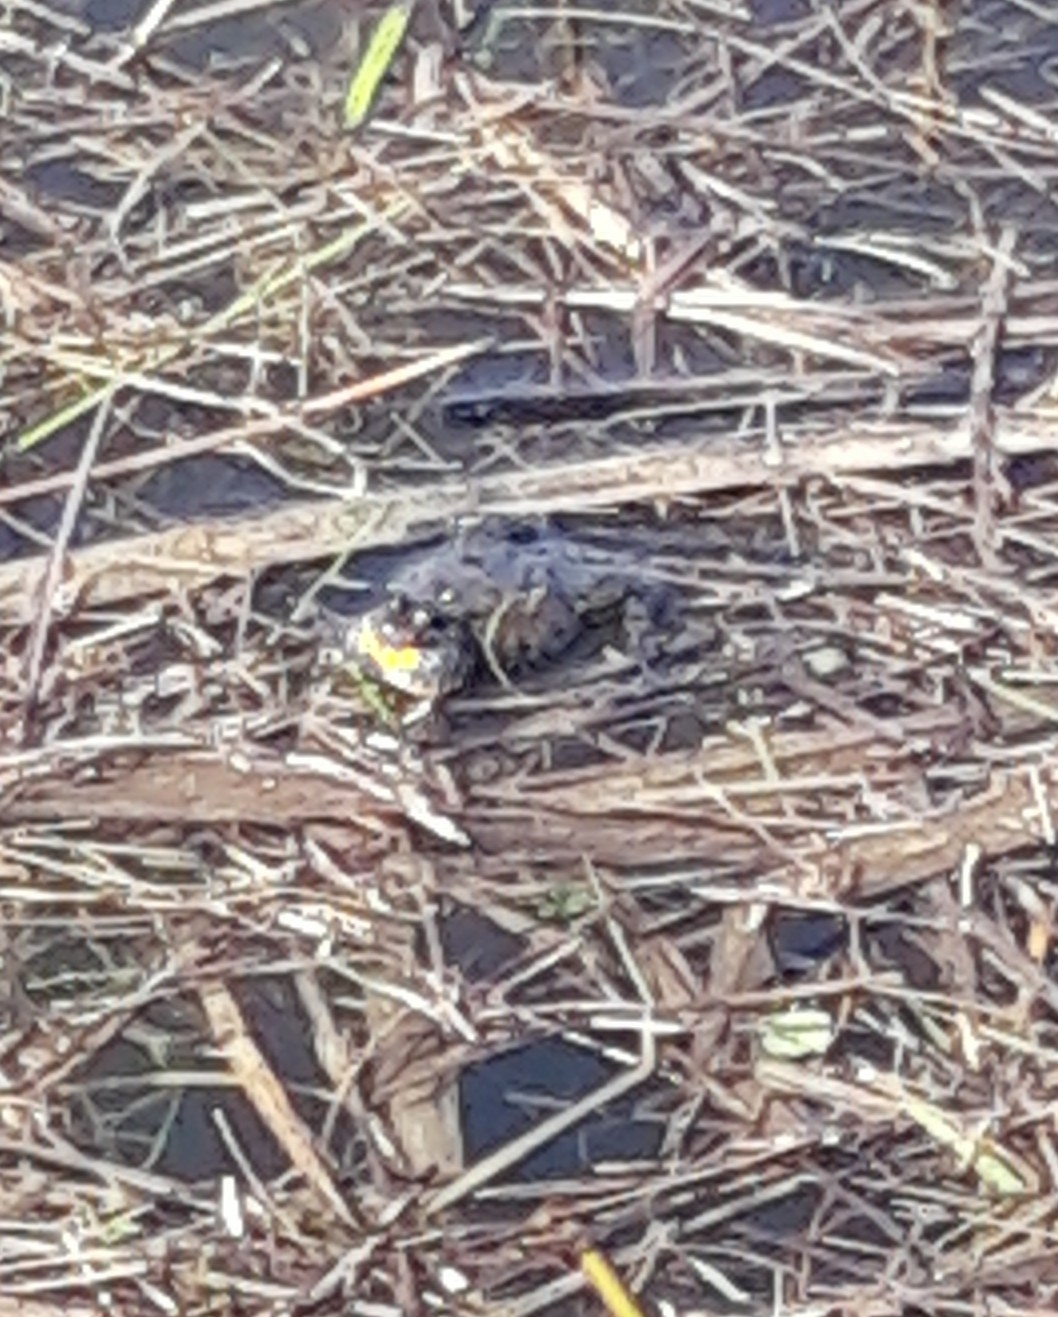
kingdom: Animalia
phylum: Chordata
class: Amphibia
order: Anura
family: Bombinatoridae
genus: Bombina
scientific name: Bombina bombina
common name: Fire-bellied toad
